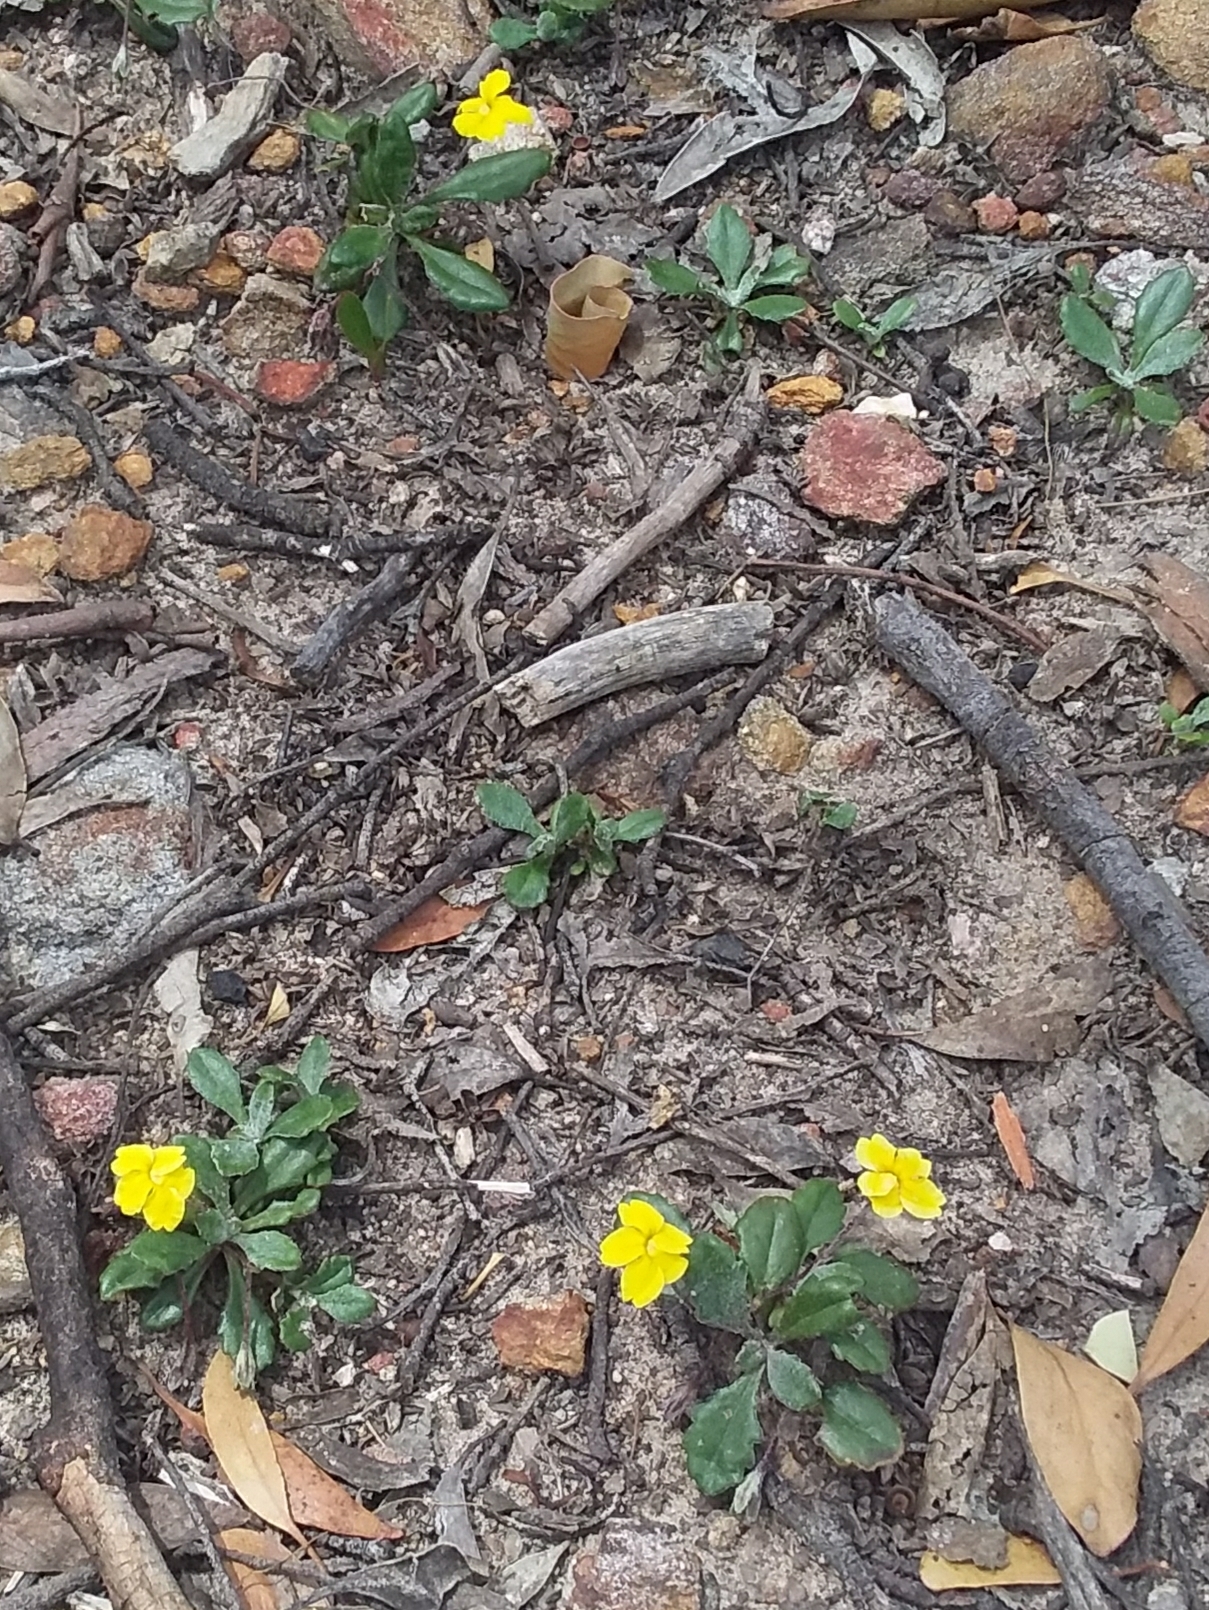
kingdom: Plantae
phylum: Tracheophyta
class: Magnoliopsida
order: Asterales
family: Goodeniaceae
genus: Goodenia
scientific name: Goodenia blackiana
